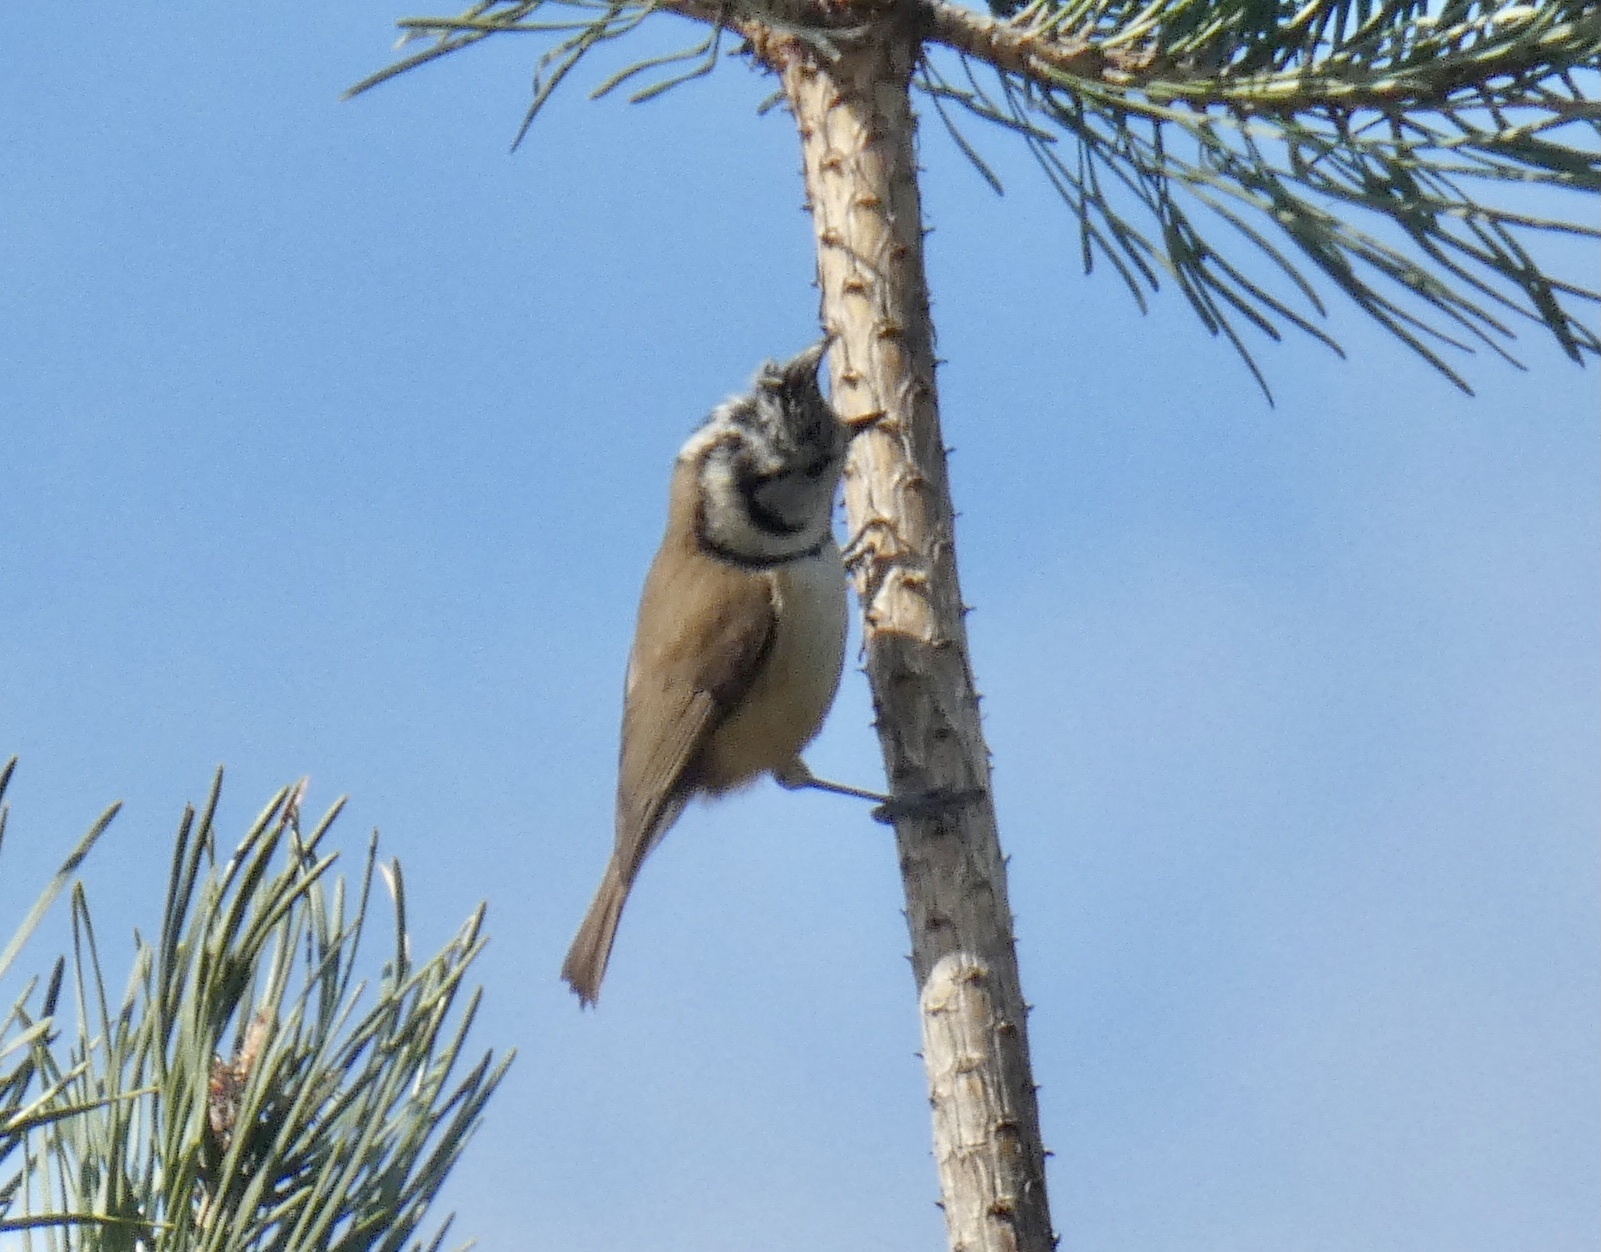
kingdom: Animalia
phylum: Chordata
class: Aves
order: Passeriformes
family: Paridae
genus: Lophophanes
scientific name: Lophophanes cristatus
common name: European crested tit
